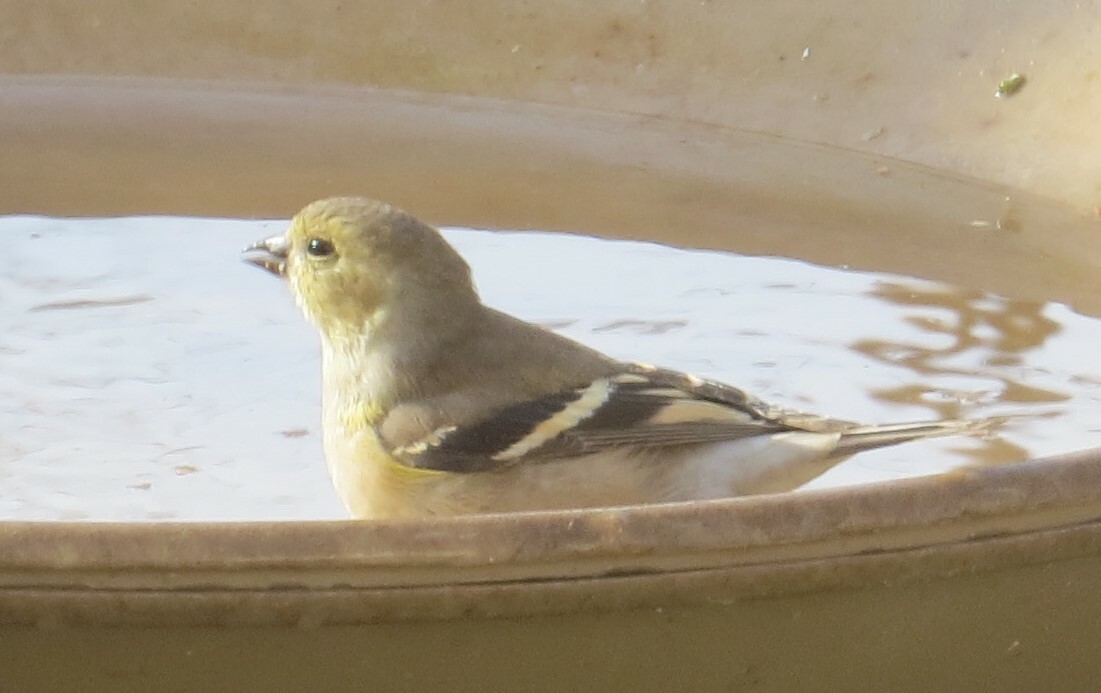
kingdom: Animalia
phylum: Chordata
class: Aves
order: Passeriformes
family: Fringillidae
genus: Spinus
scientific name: Spinus tristis
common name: American goldfinch
